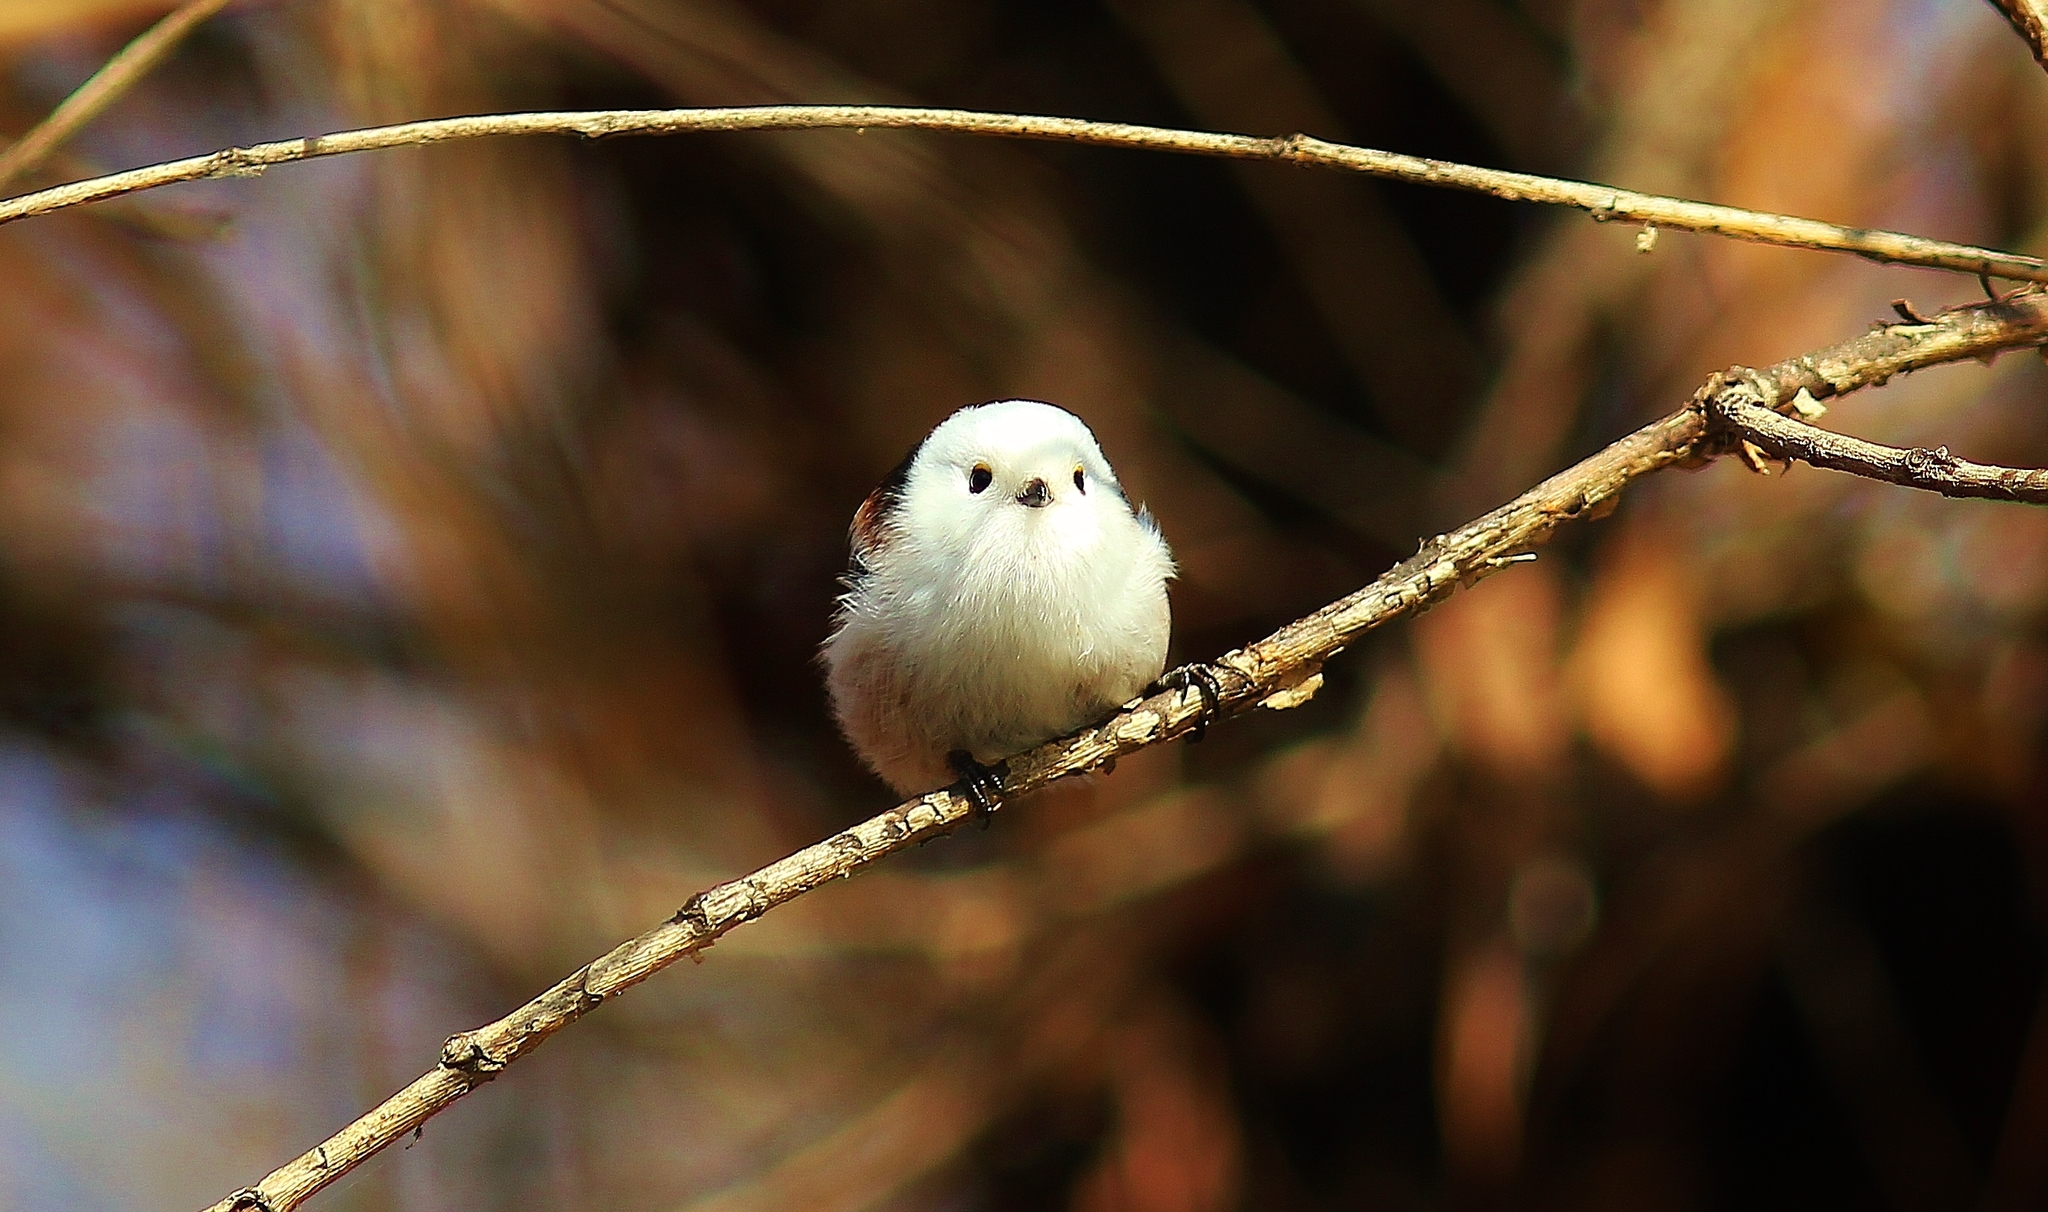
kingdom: Animalia
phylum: Chordata
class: Aves
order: Passeriformes
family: Aegithalidae
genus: Aegithalos
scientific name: Aegithalos caudatus
